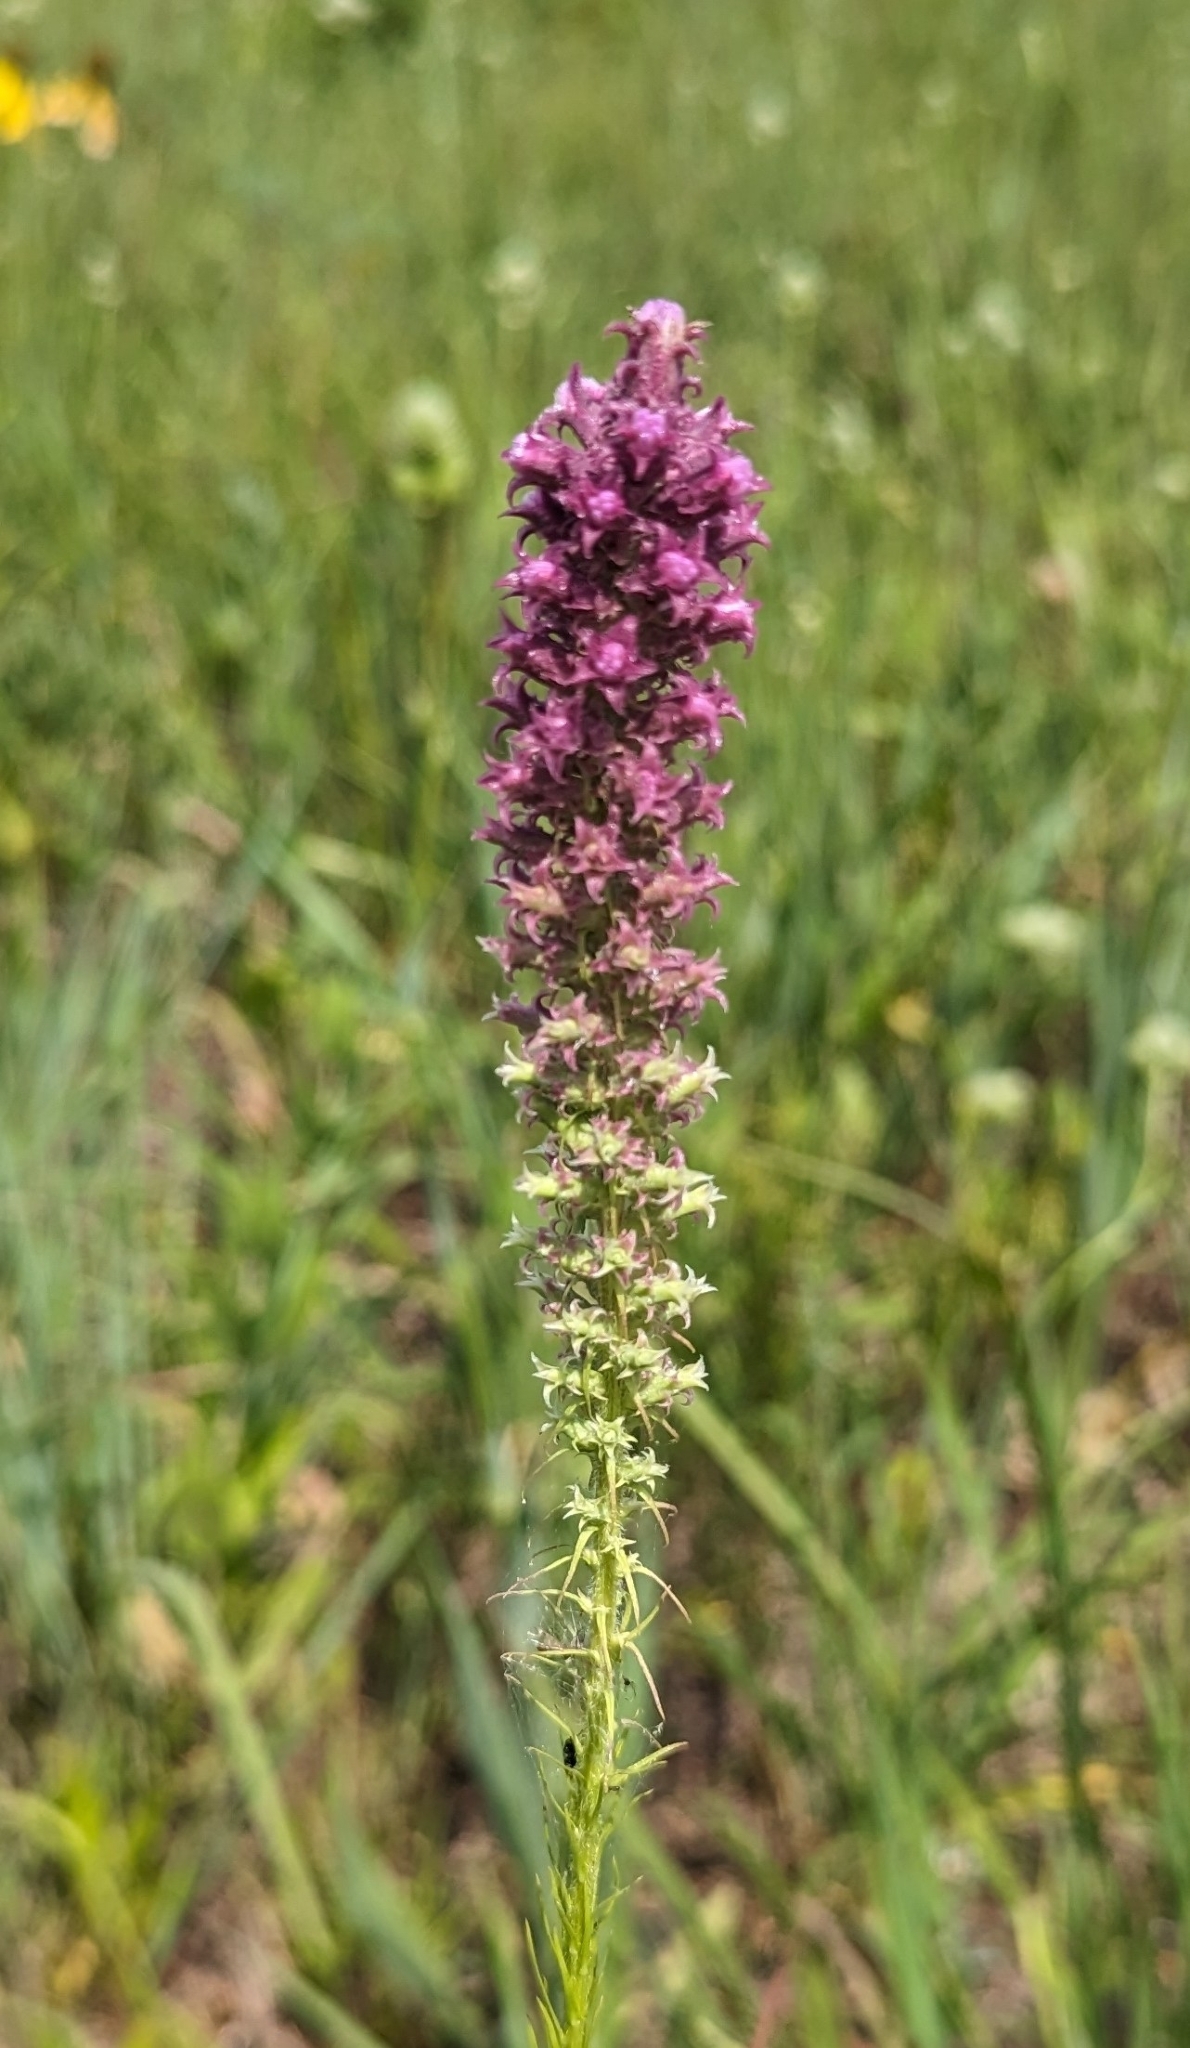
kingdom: Plantae
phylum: Tracheophyta
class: Magnoliopsida
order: Asterales
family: Asteraceae
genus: Liatris
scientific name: Liatris pycnostachya
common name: Cattail gayfeather
